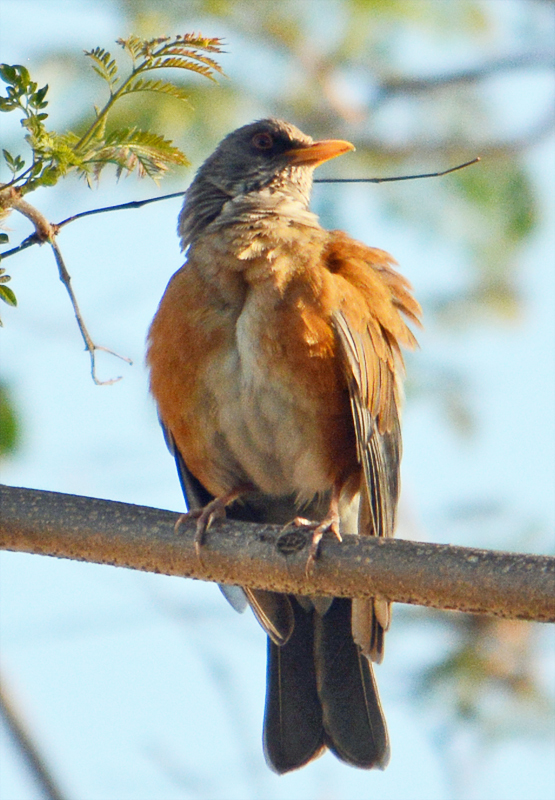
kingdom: Animalia
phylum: Chordata
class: Aves
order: Passeriformes
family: Turdidae
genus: Turdus
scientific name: Turdus rufopalliatus
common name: Rufous-backed robin
